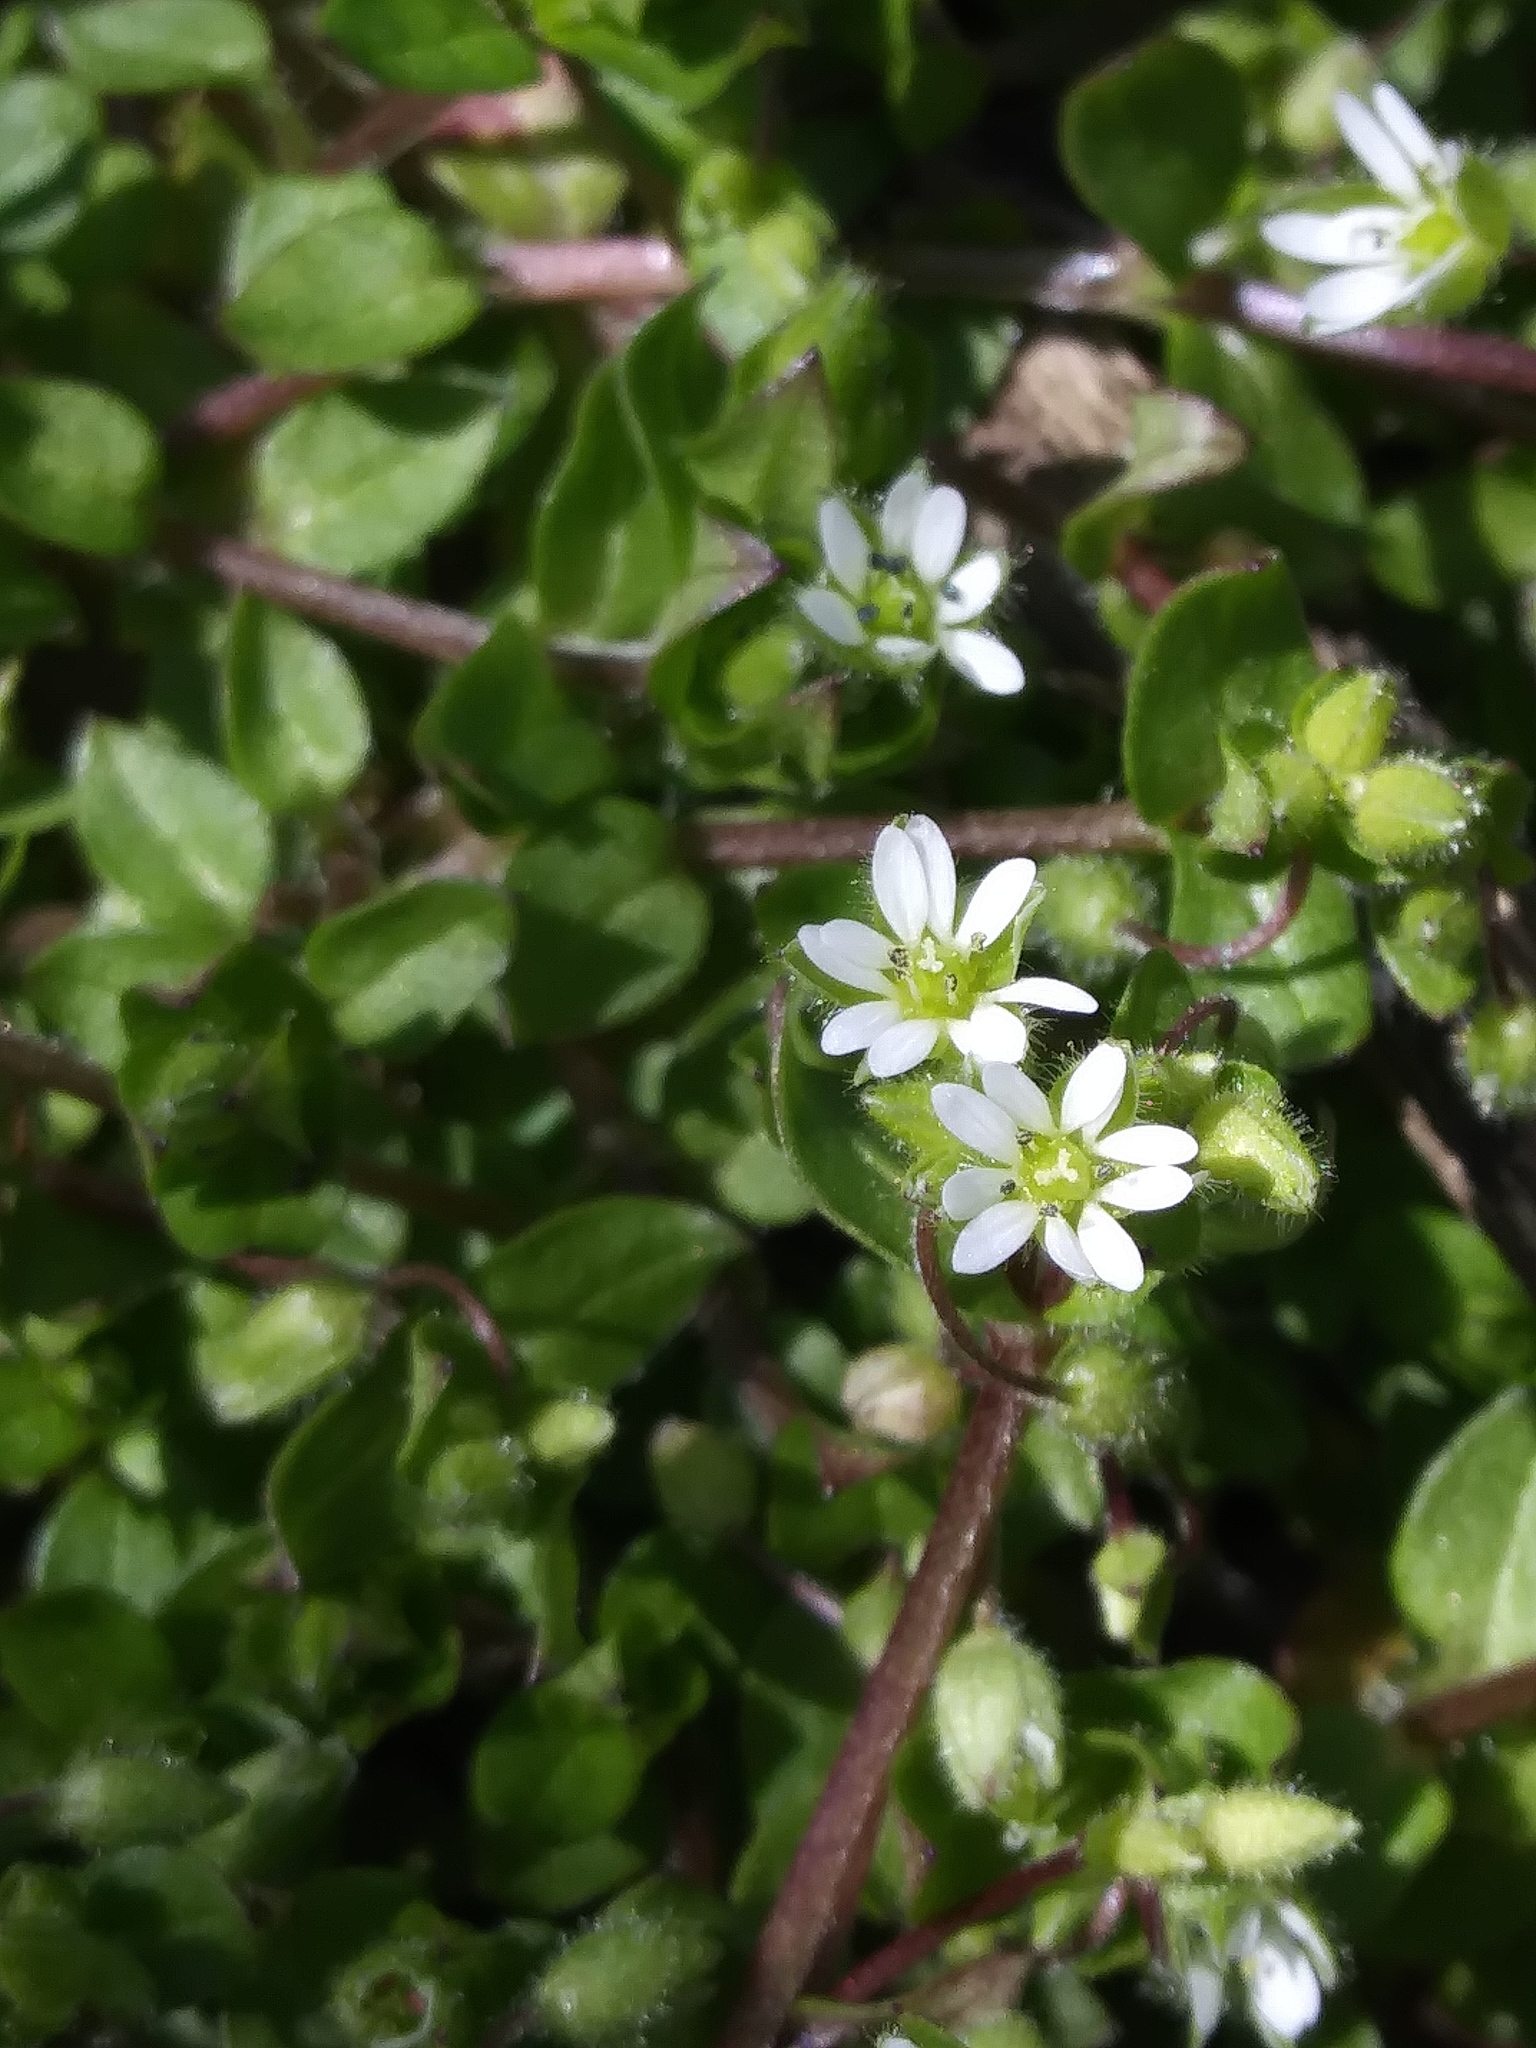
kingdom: Plantae
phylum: Tracheophyta
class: Magnoliopsida
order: Caryophyllales
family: Caryophyllaceae
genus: Stellaria
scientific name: Stellaria media
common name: Common chickweed
